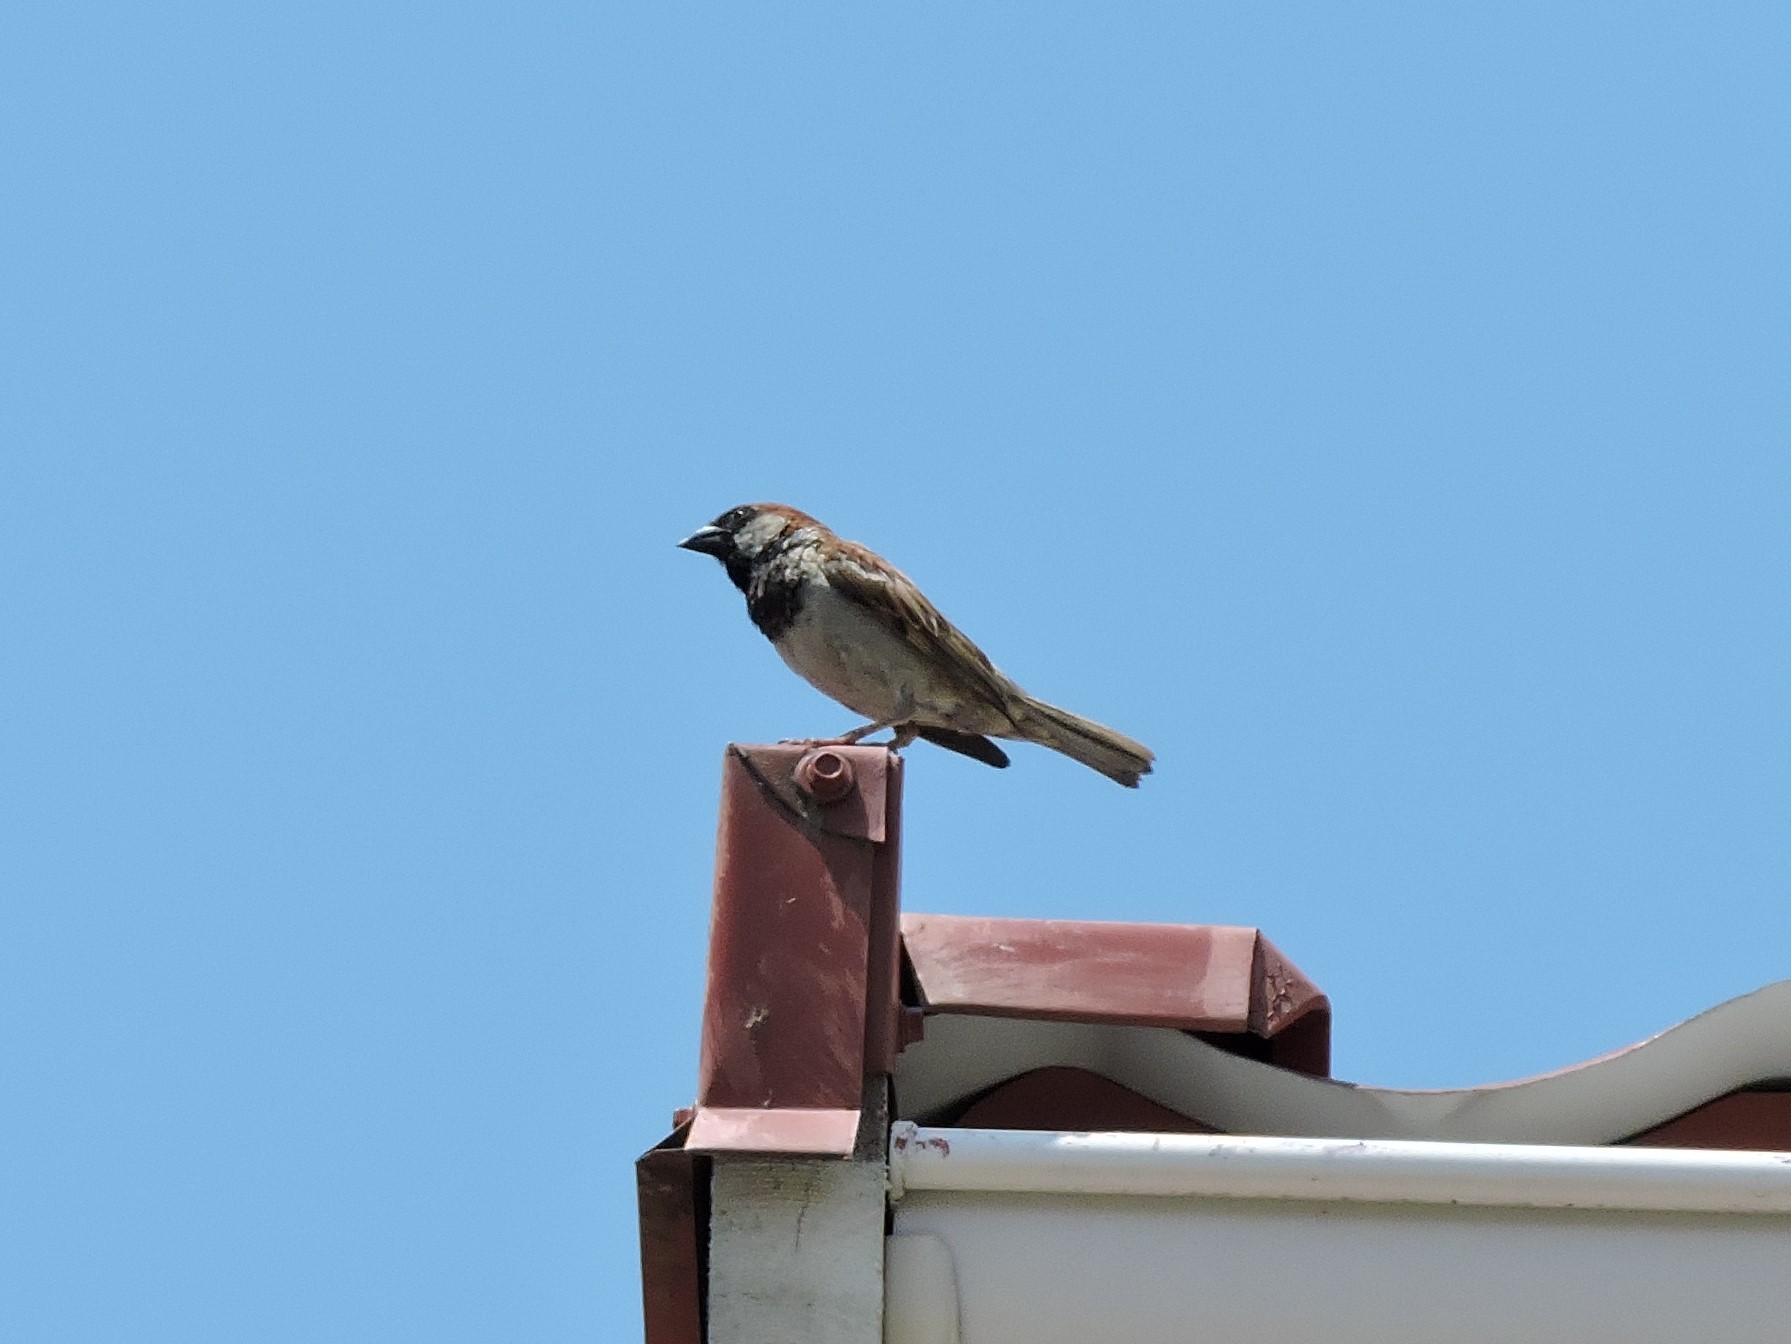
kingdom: Animalia
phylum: Chordata
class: Aves
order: Passeriformes
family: Passeridae
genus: Passer
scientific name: Passer domesticus
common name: House sparrow
